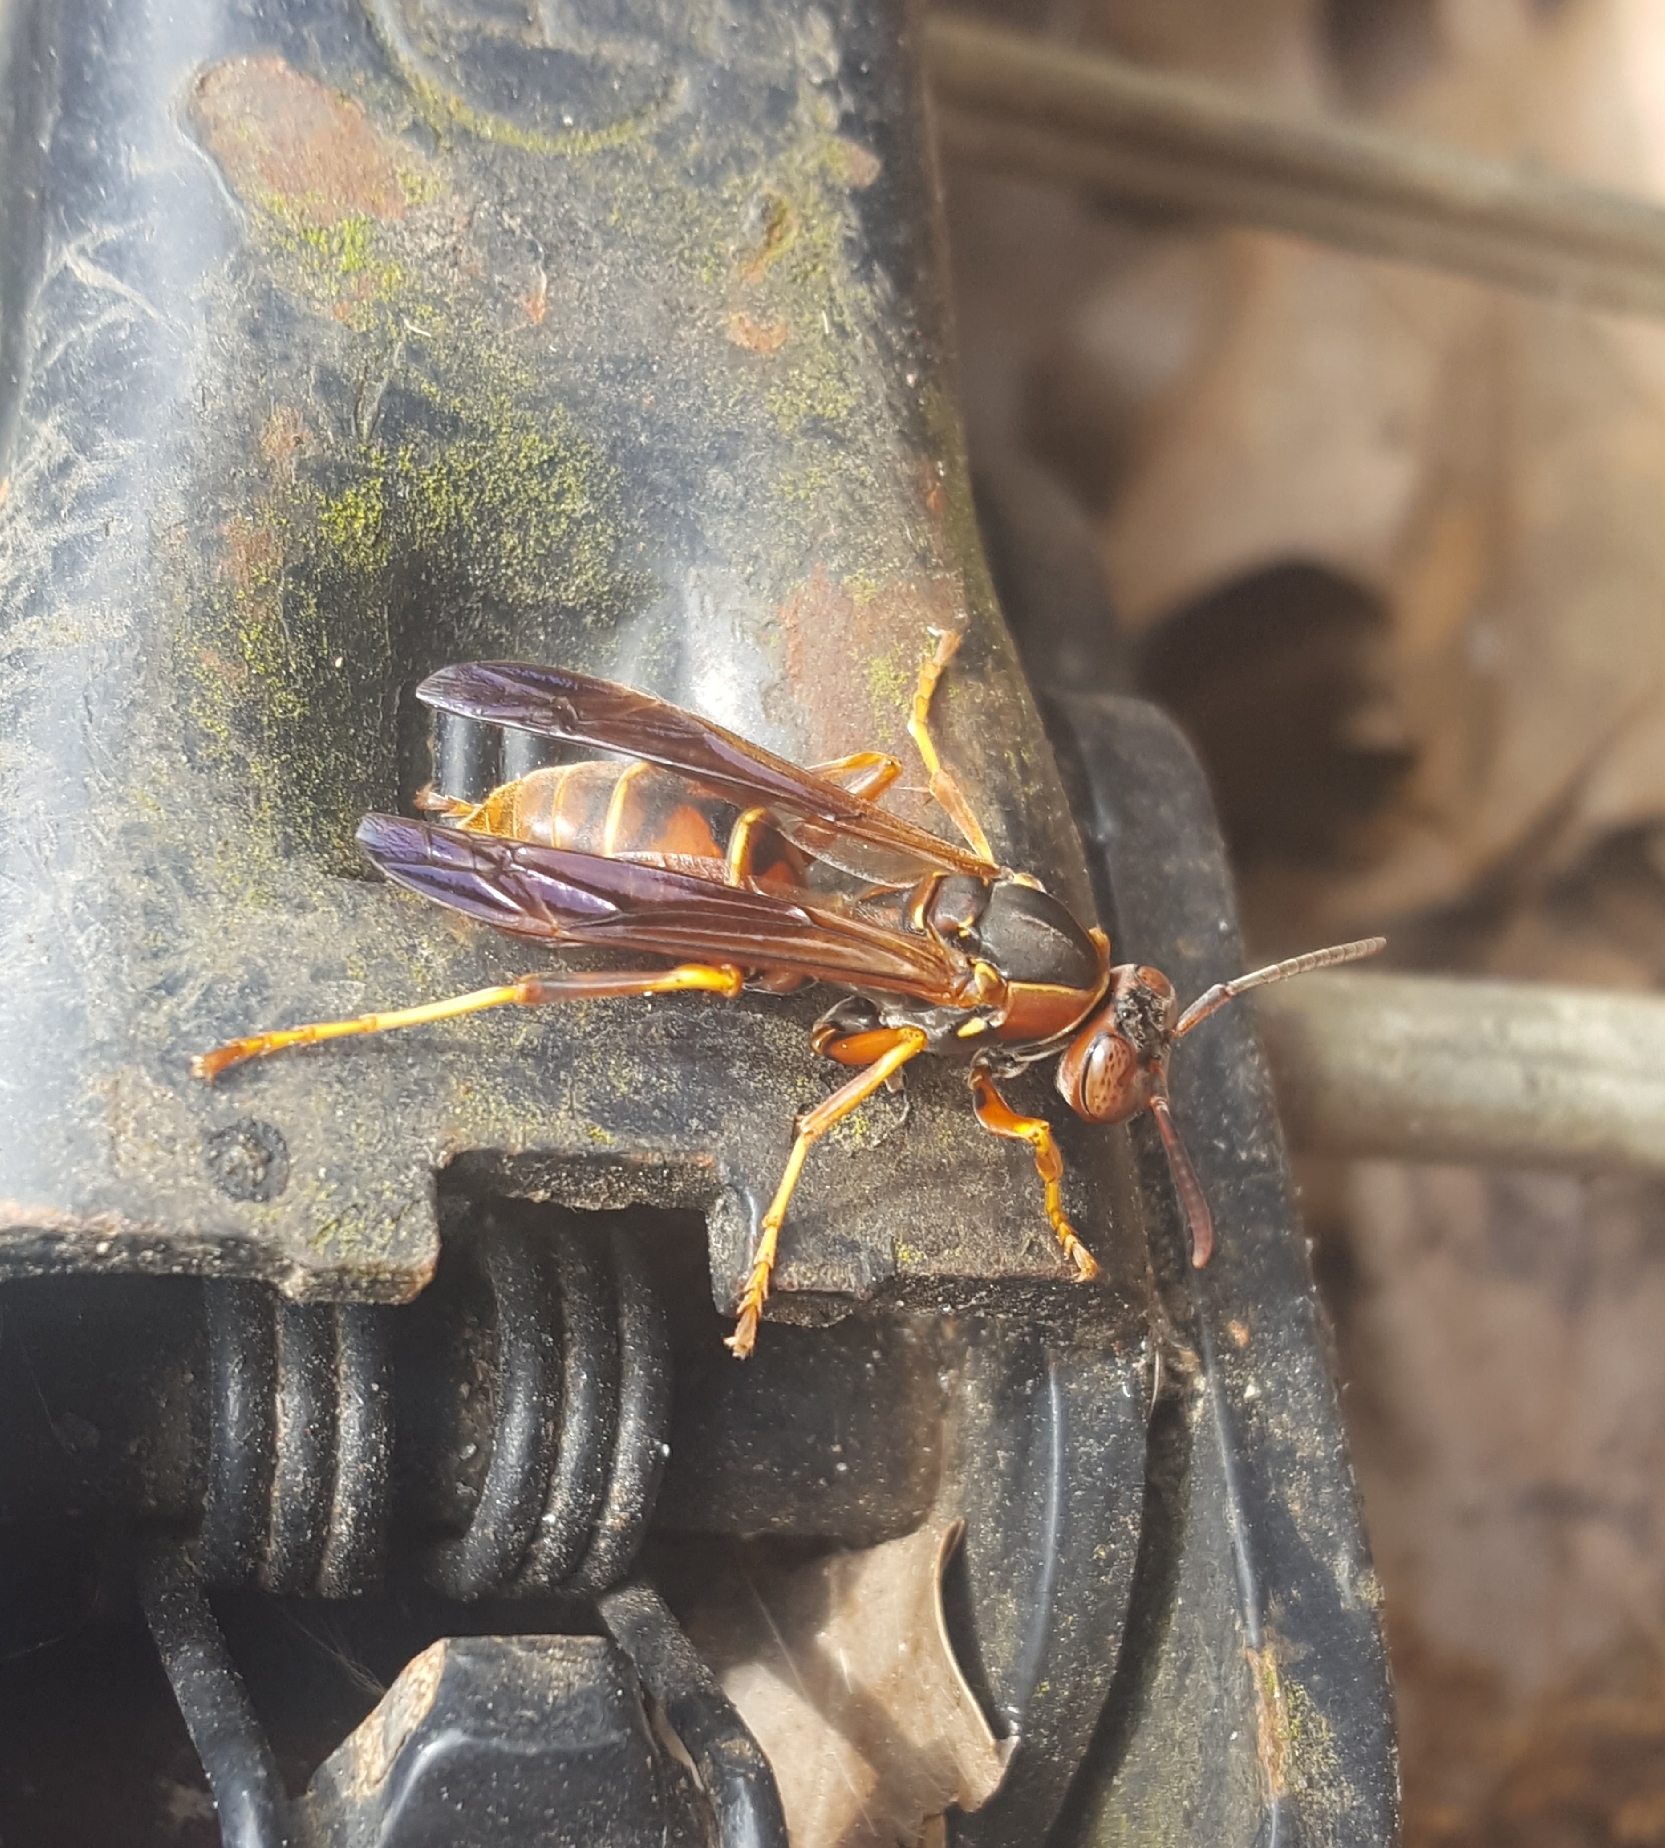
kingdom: Animalia
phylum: Arthropoda
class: Insecta
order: Hymenoptera
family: Eumenidae
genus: Polistes
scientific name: Polistes fuscatus
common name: Dark paper wasp
